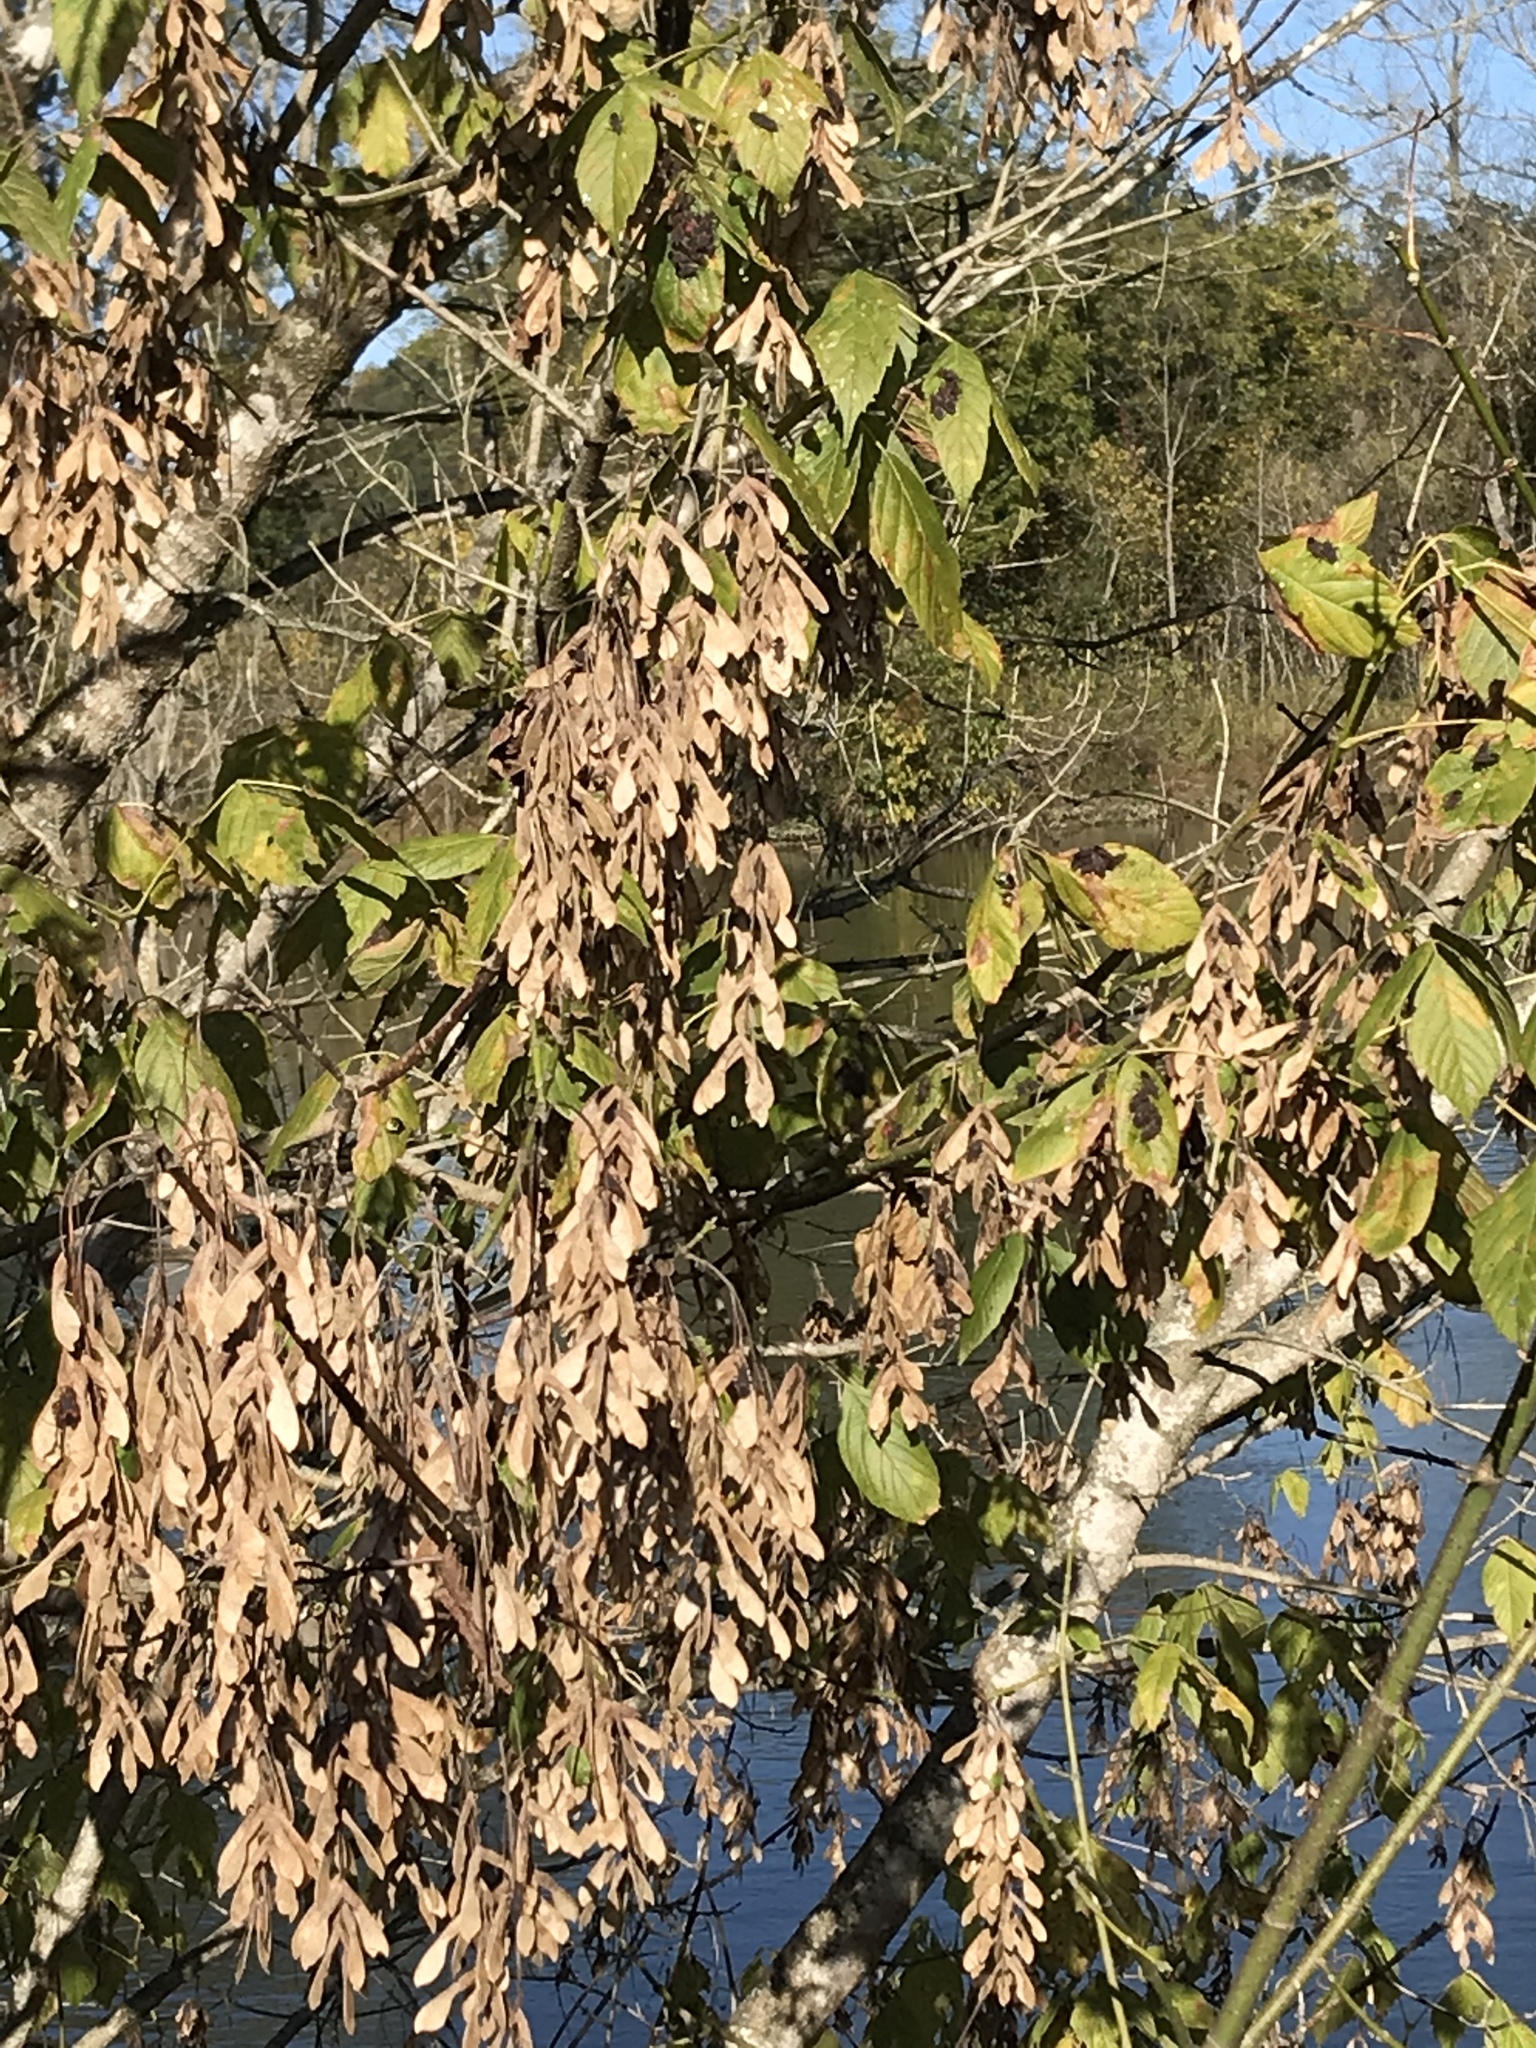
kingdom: Plantae
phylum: Tracheophyta
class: Magnoliopsida
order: Sapindales
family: Sapindaceae
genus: Acer
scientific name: Acer negundo
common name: Ashleaf maple
